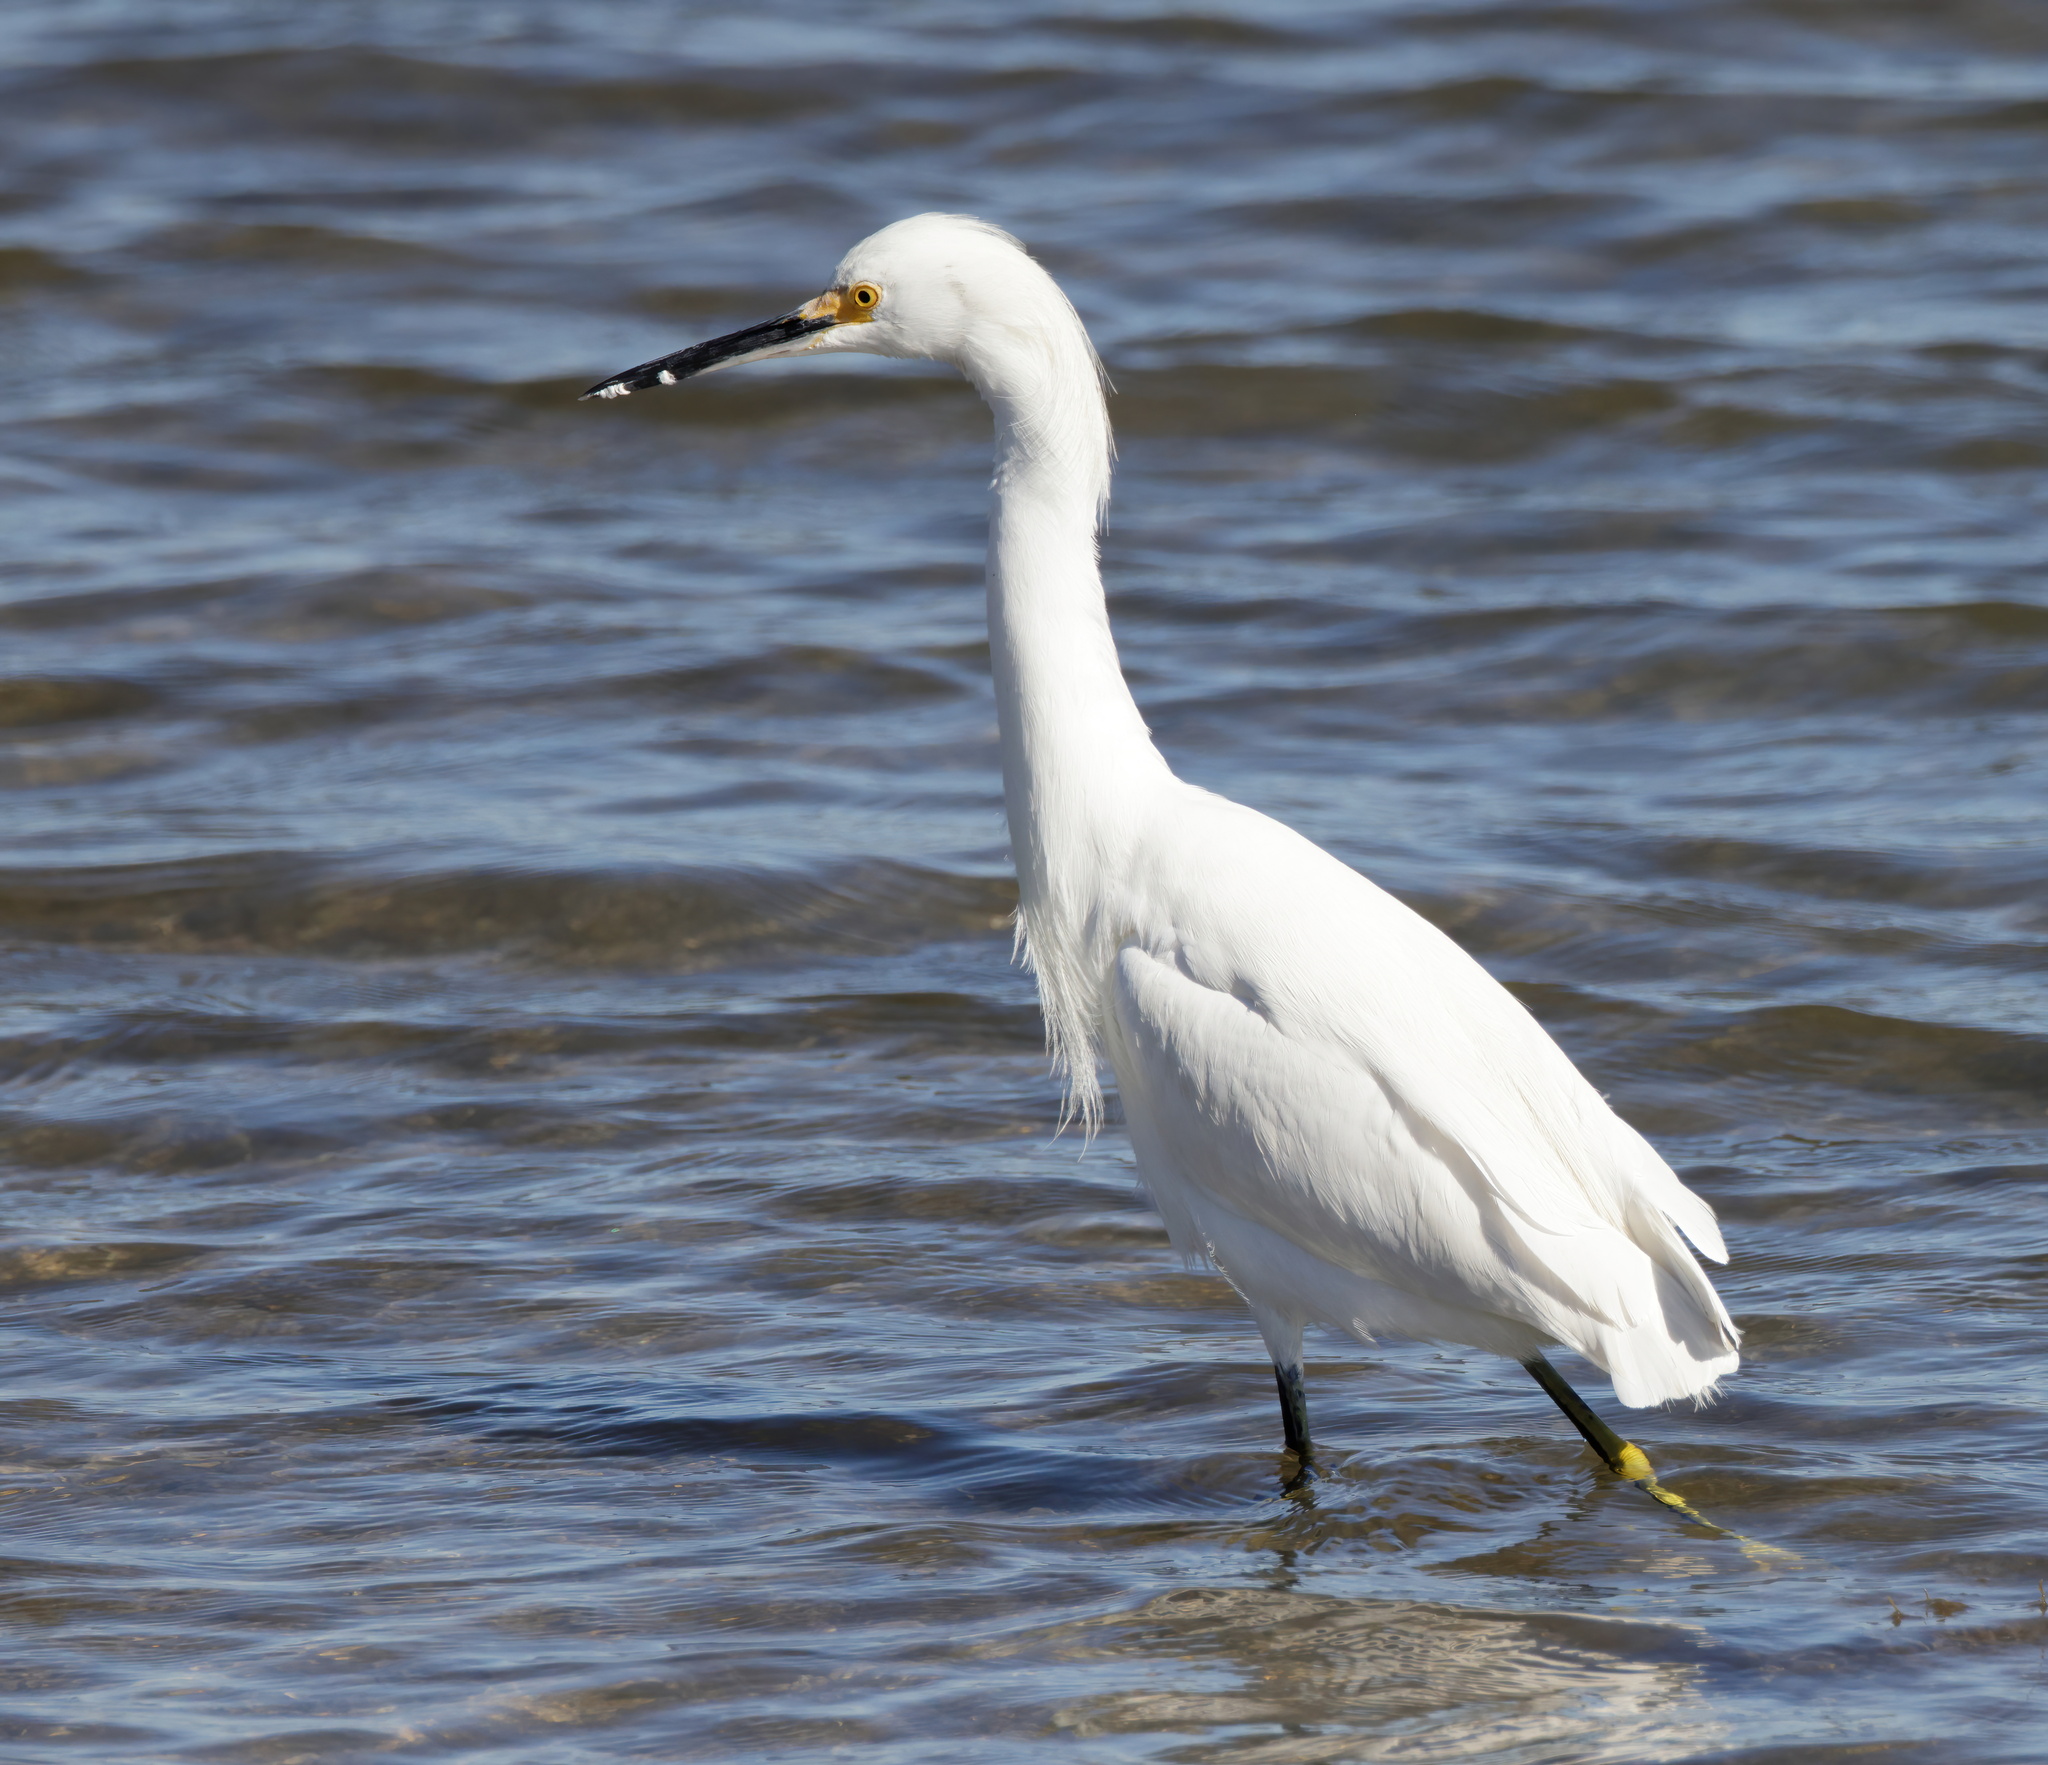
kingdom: Animalia
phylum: Chordata
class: Aves
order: Pelecaniformes
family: Ardeidae
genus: Egretta
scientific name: Egretta thula
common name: Snowy egret
